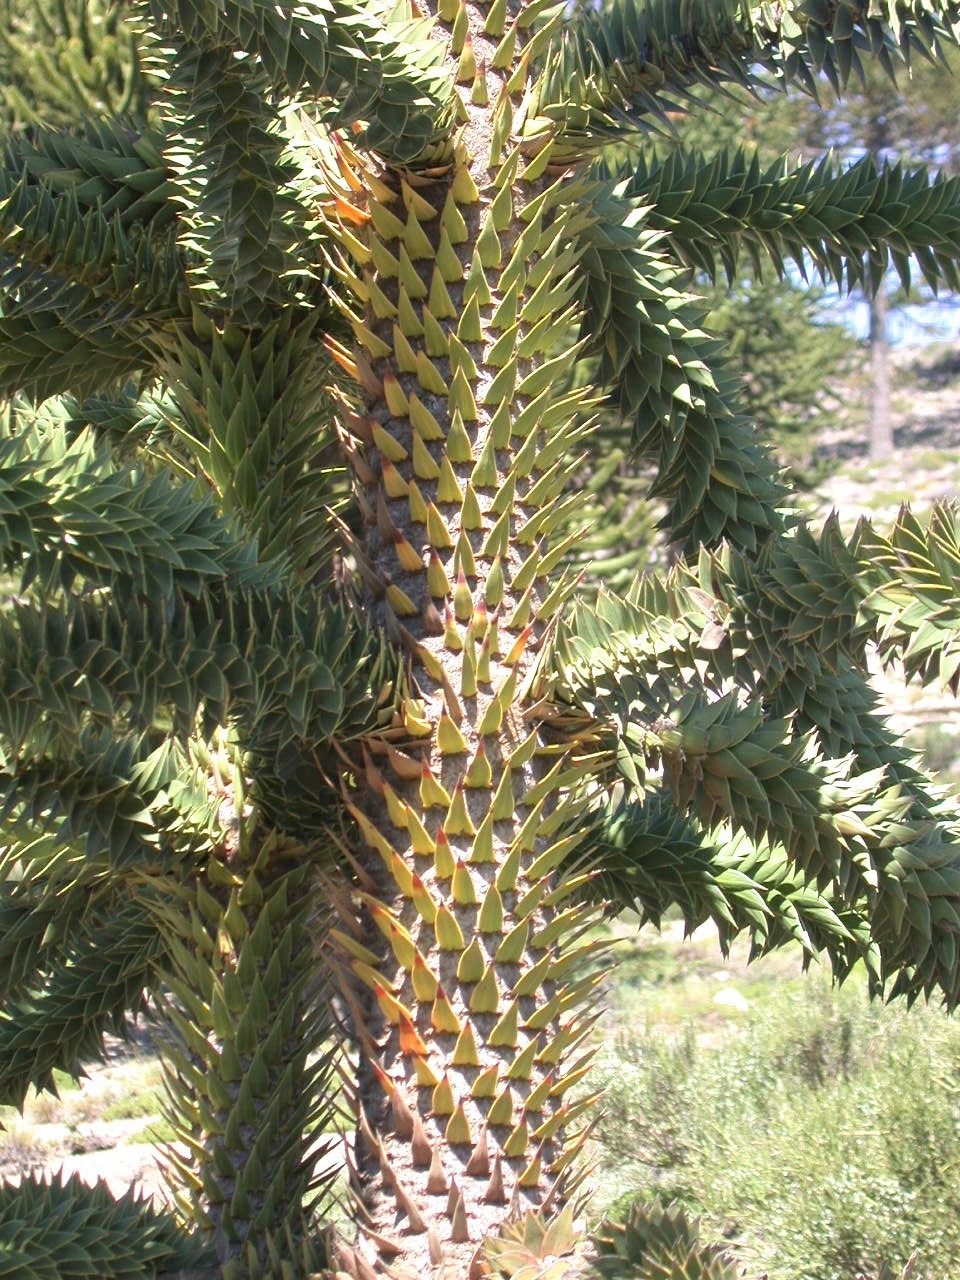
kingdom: Plantae
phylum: Tracheophyta
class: Pinopsida
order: Pinales
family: Araucariaceae
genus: Araucaria
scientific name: Araucaria araucana
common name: Monkey-puzzle
